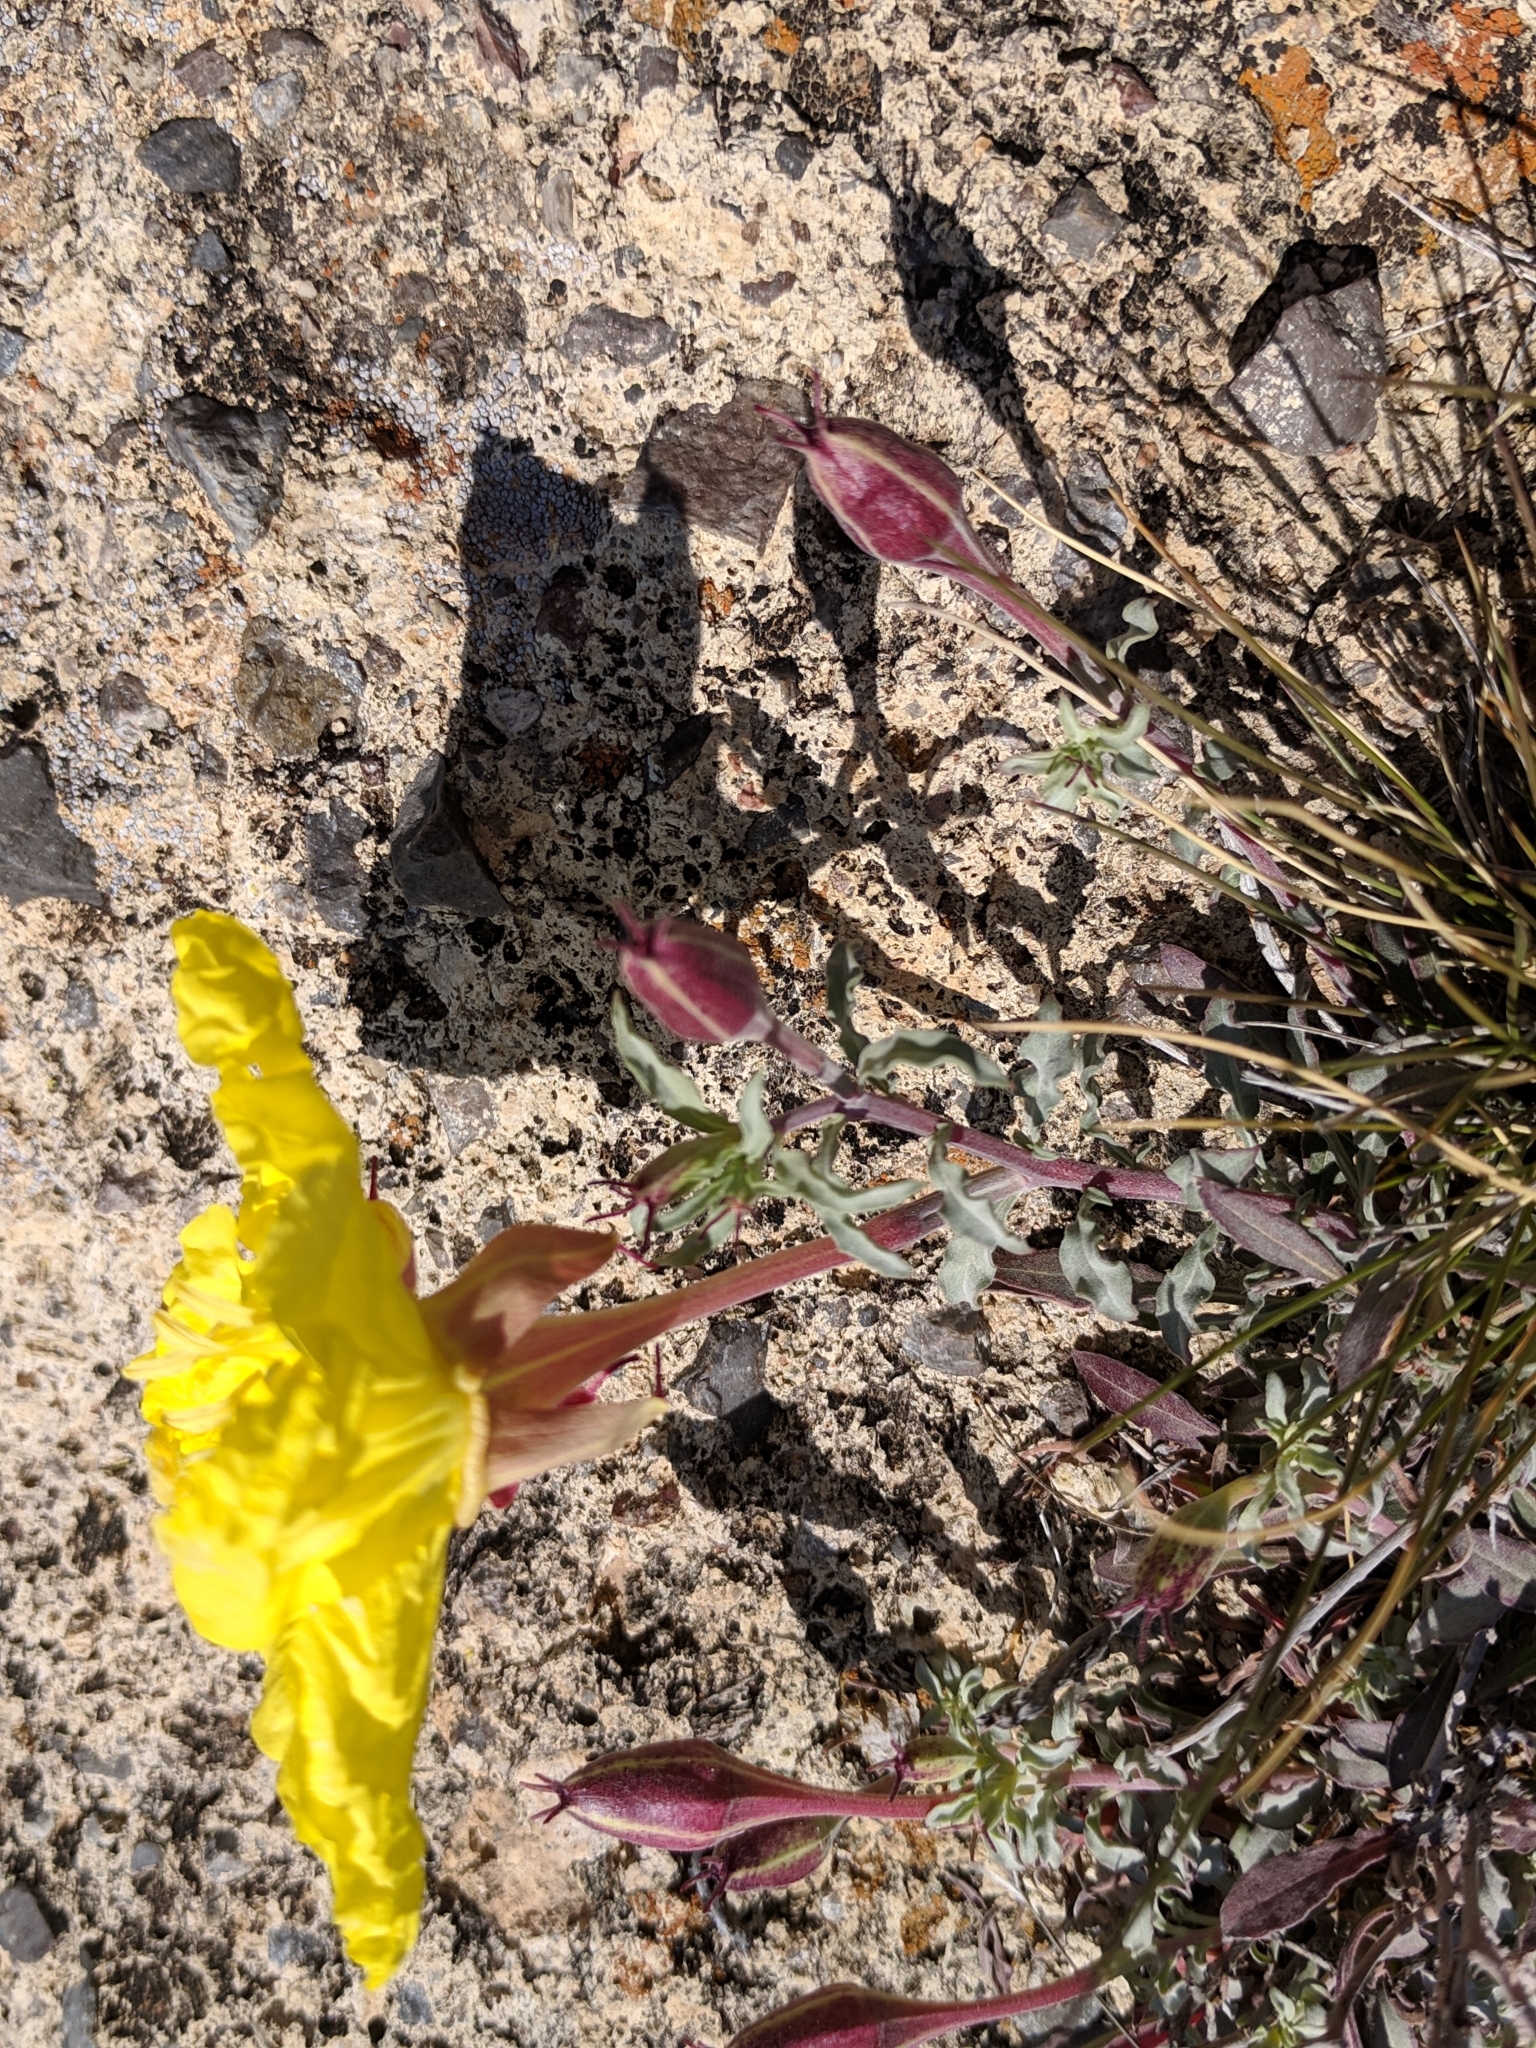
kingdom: Plantae
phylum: Tracheophyta
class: Magnoliopsida
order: Myrtales
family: Onagraceae
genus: Oenothera
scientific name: Oenothera lavandulifolia
